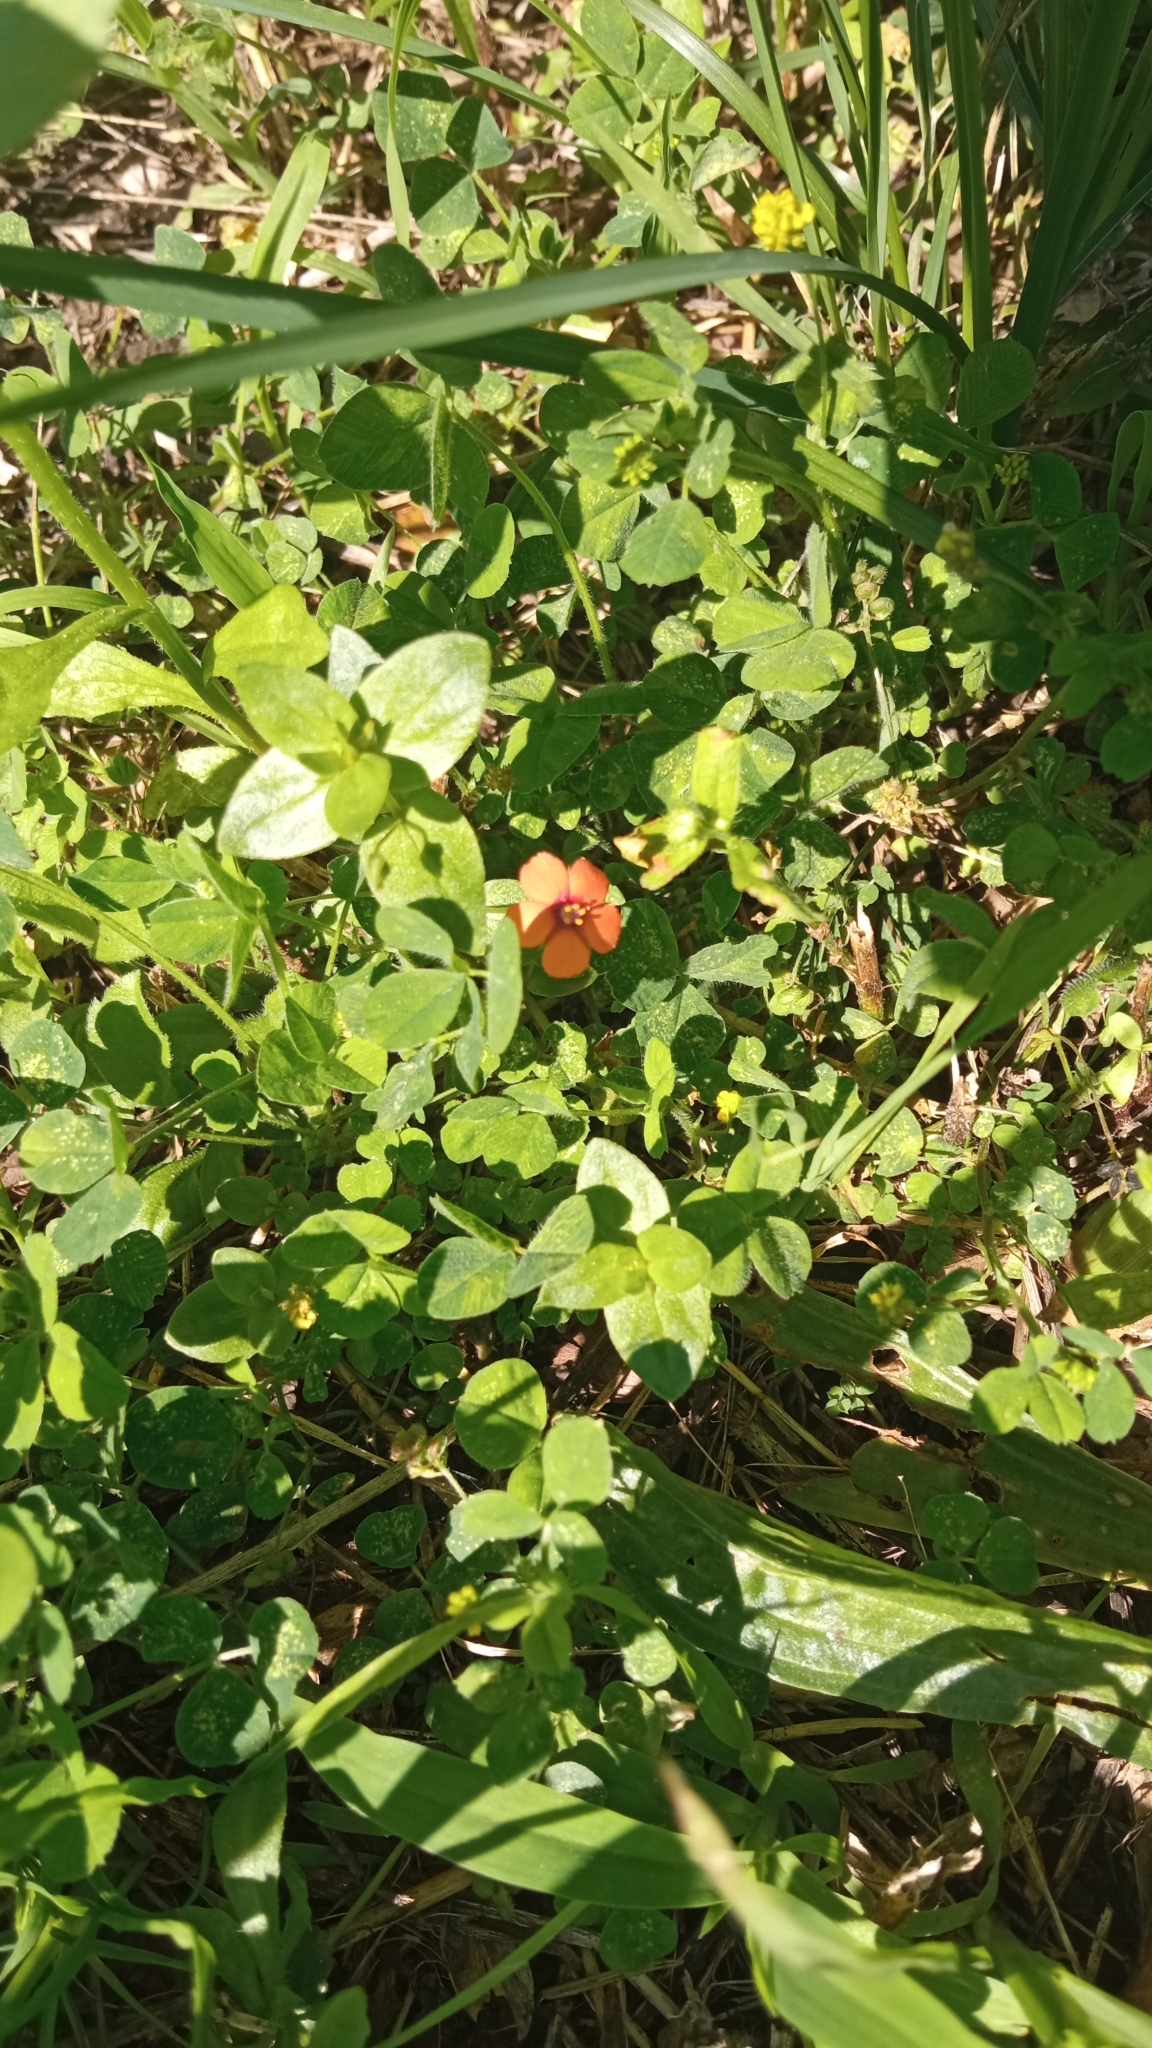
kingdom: Plantae
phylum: Tracheophyta
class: Magnoliopsida
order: Ericales
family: Primulaceae
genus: Lysimachia
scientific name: Lysimachia arvensis
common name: Scarlet pimpernel
